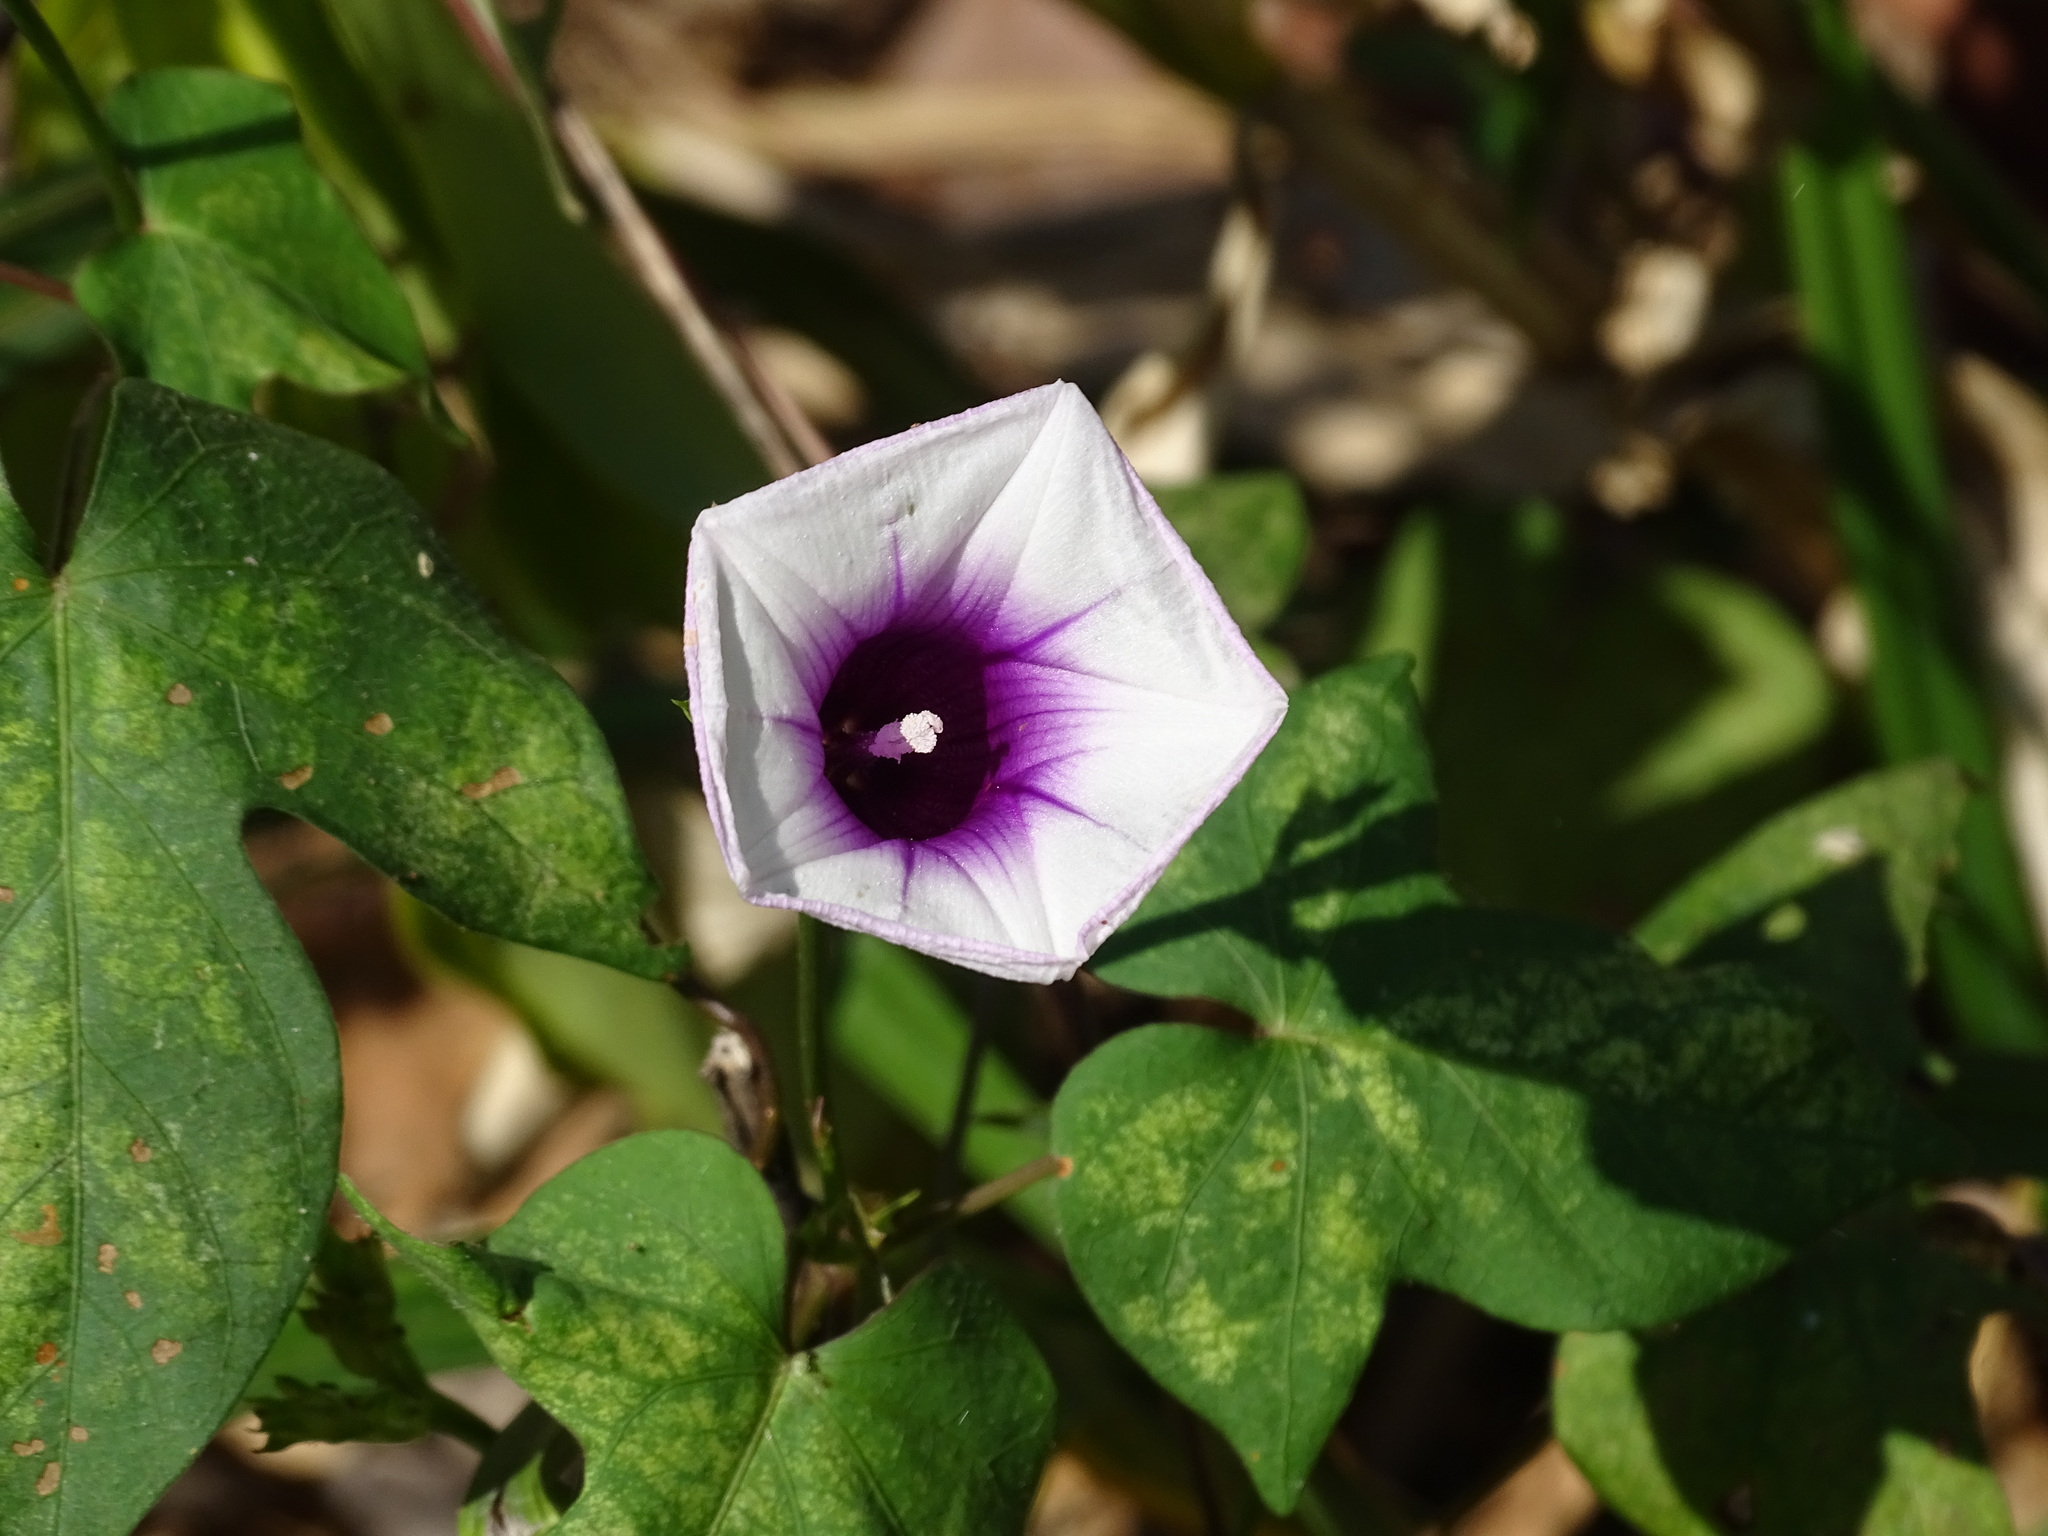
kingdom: Plantae
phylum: Tracheophyta
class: Magnoliopsida
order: Solanales
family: Convolvulaceae
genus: Ipomoea
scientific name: Ipomoea batatas
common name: Sweet-potato
